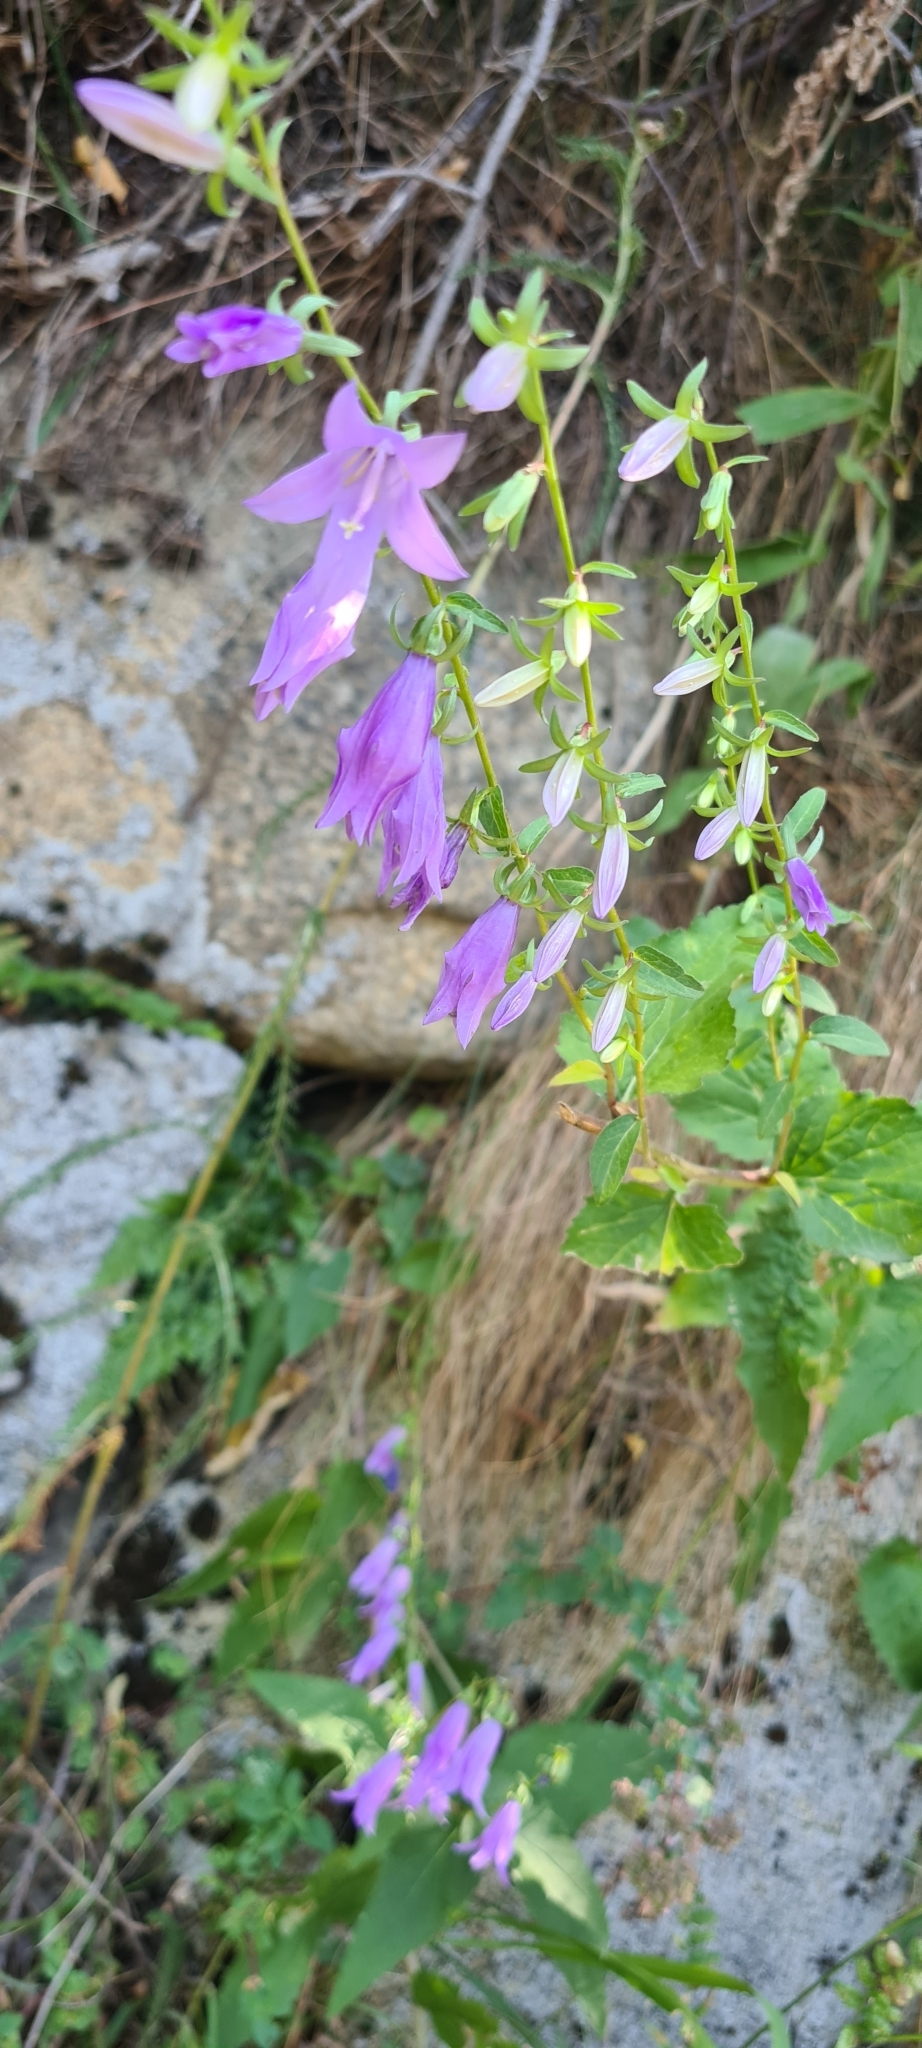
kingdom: Plantae
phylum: Tracheophyta
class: Magnoliopsida
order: Asterales
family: Campanulaceae
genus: Campanula
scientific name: Campanula rapunculoides
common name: Creeping bellflower
